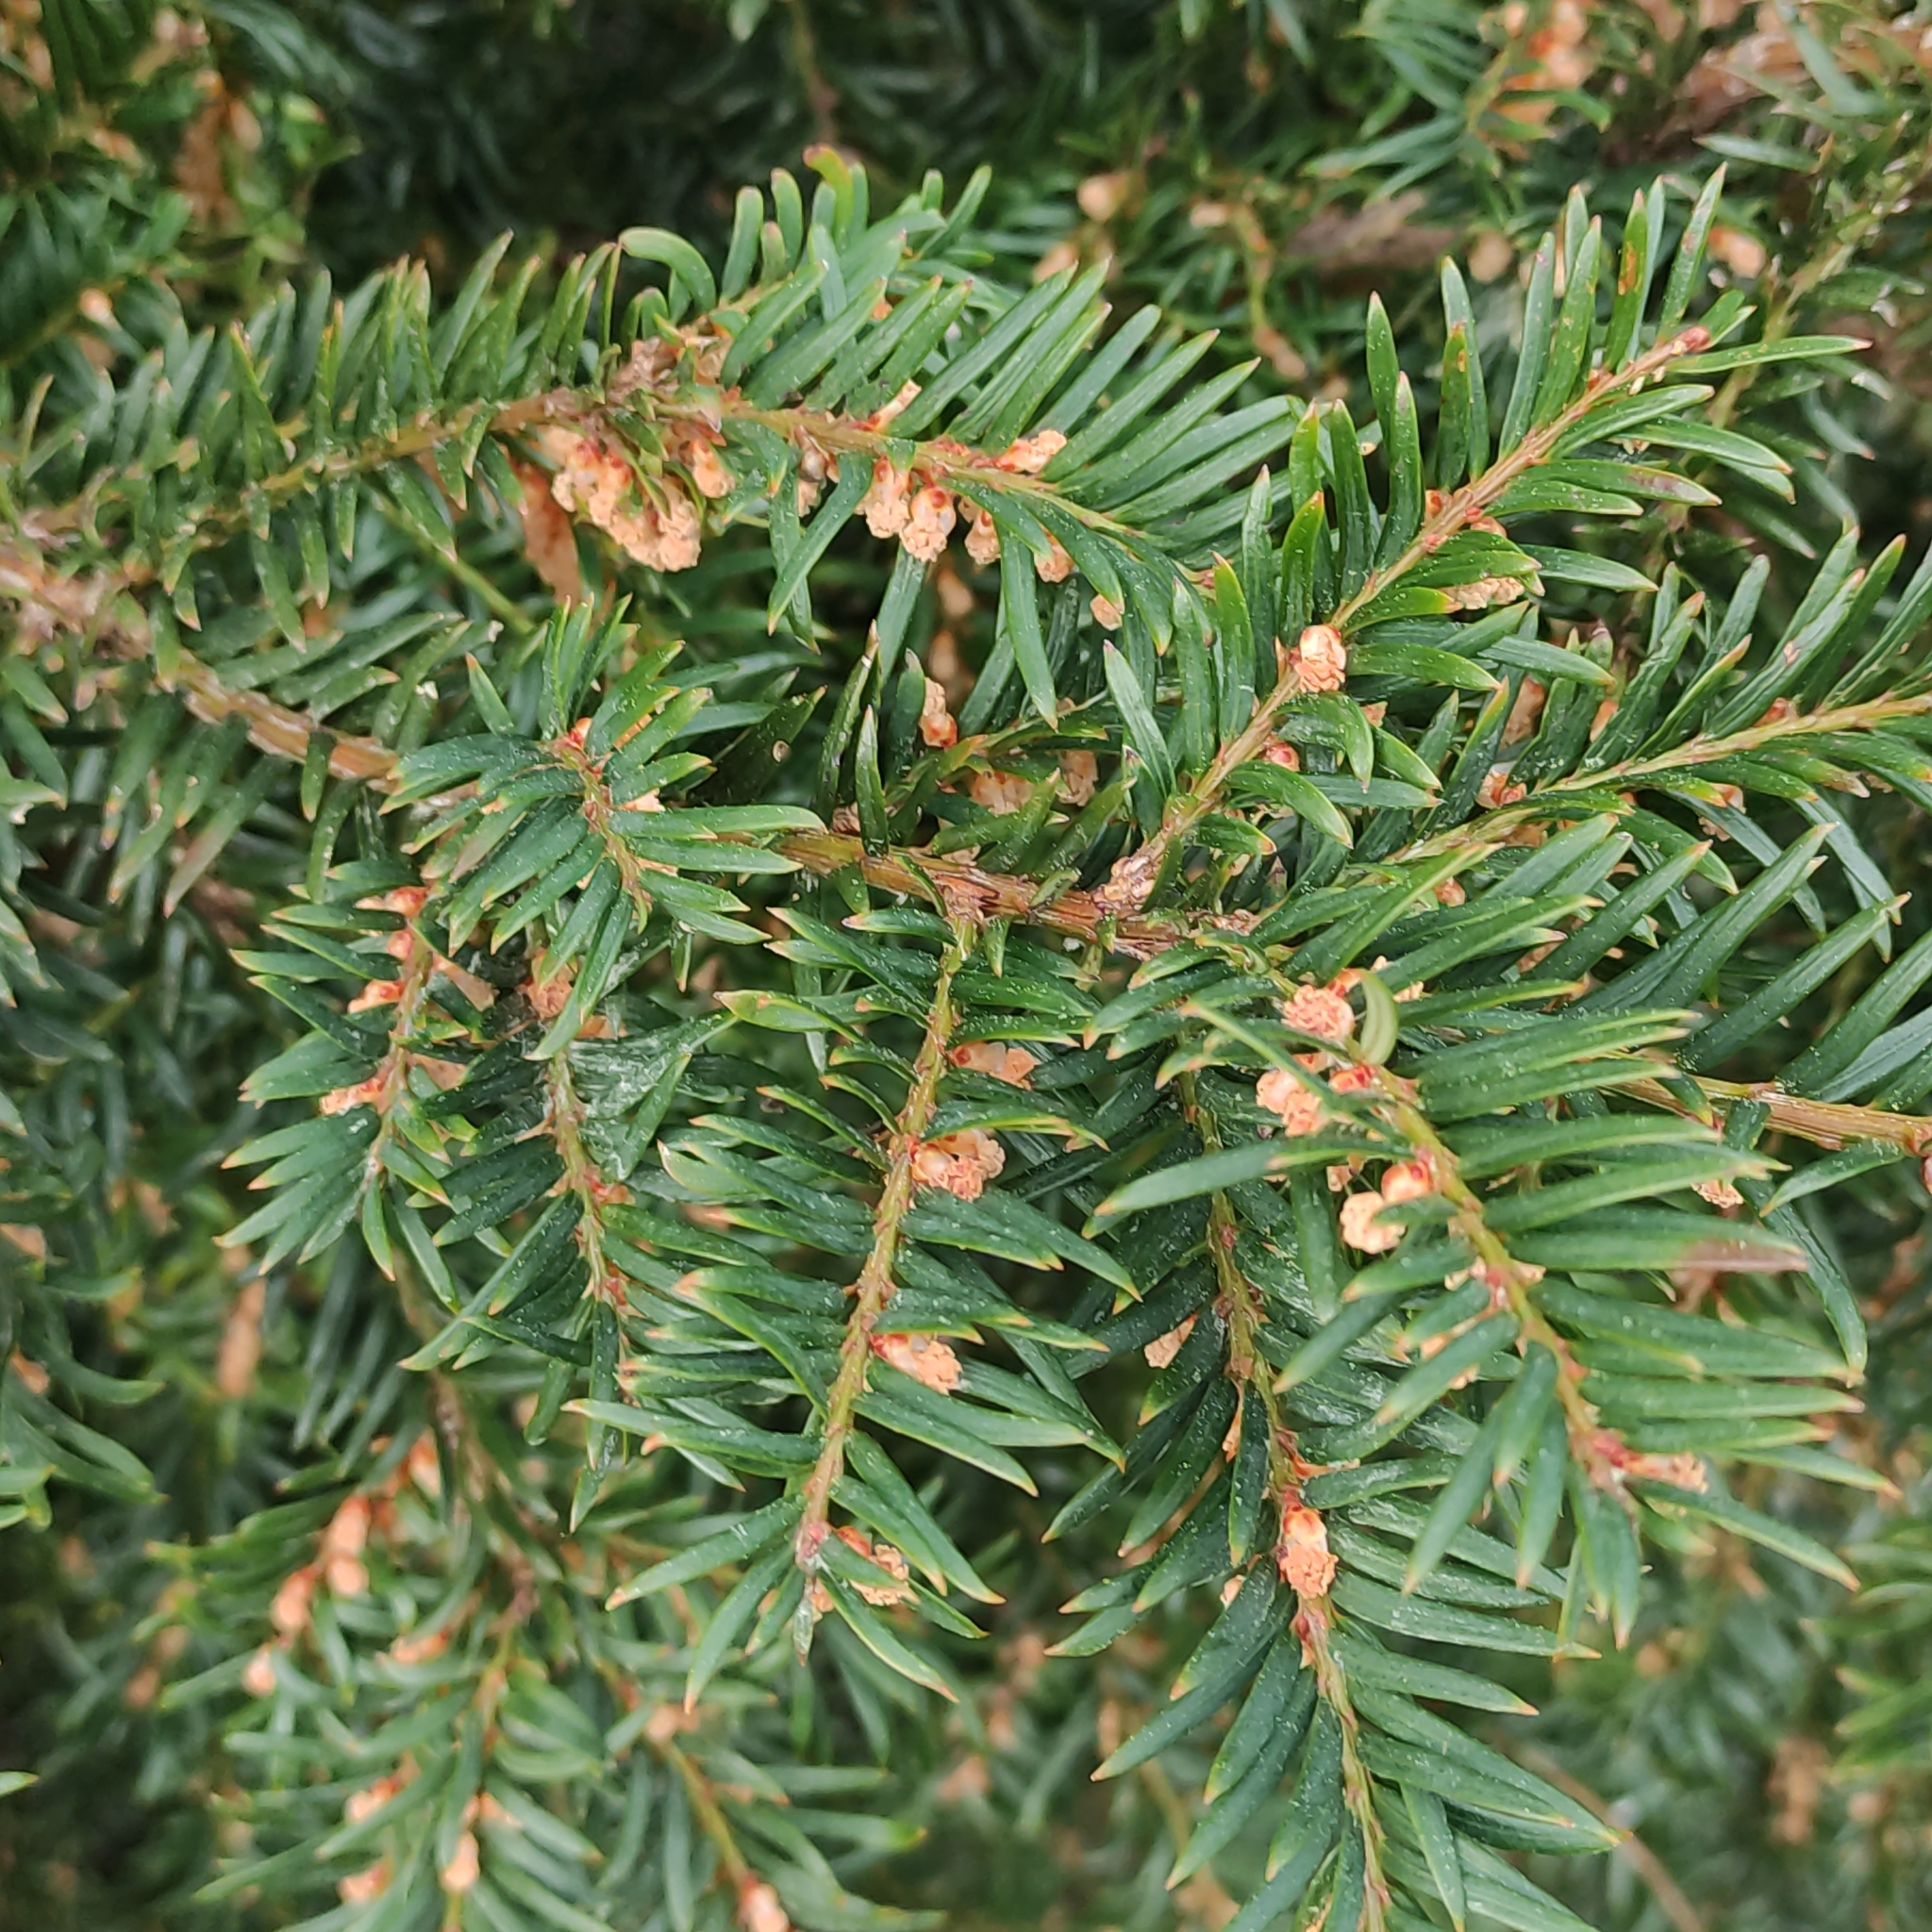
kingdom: Plantae
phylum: Tracheophyta
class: Pinopsida
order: Pinales
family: Taxaceae
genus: Taxus
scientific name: Taxus baccata
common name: Yew
